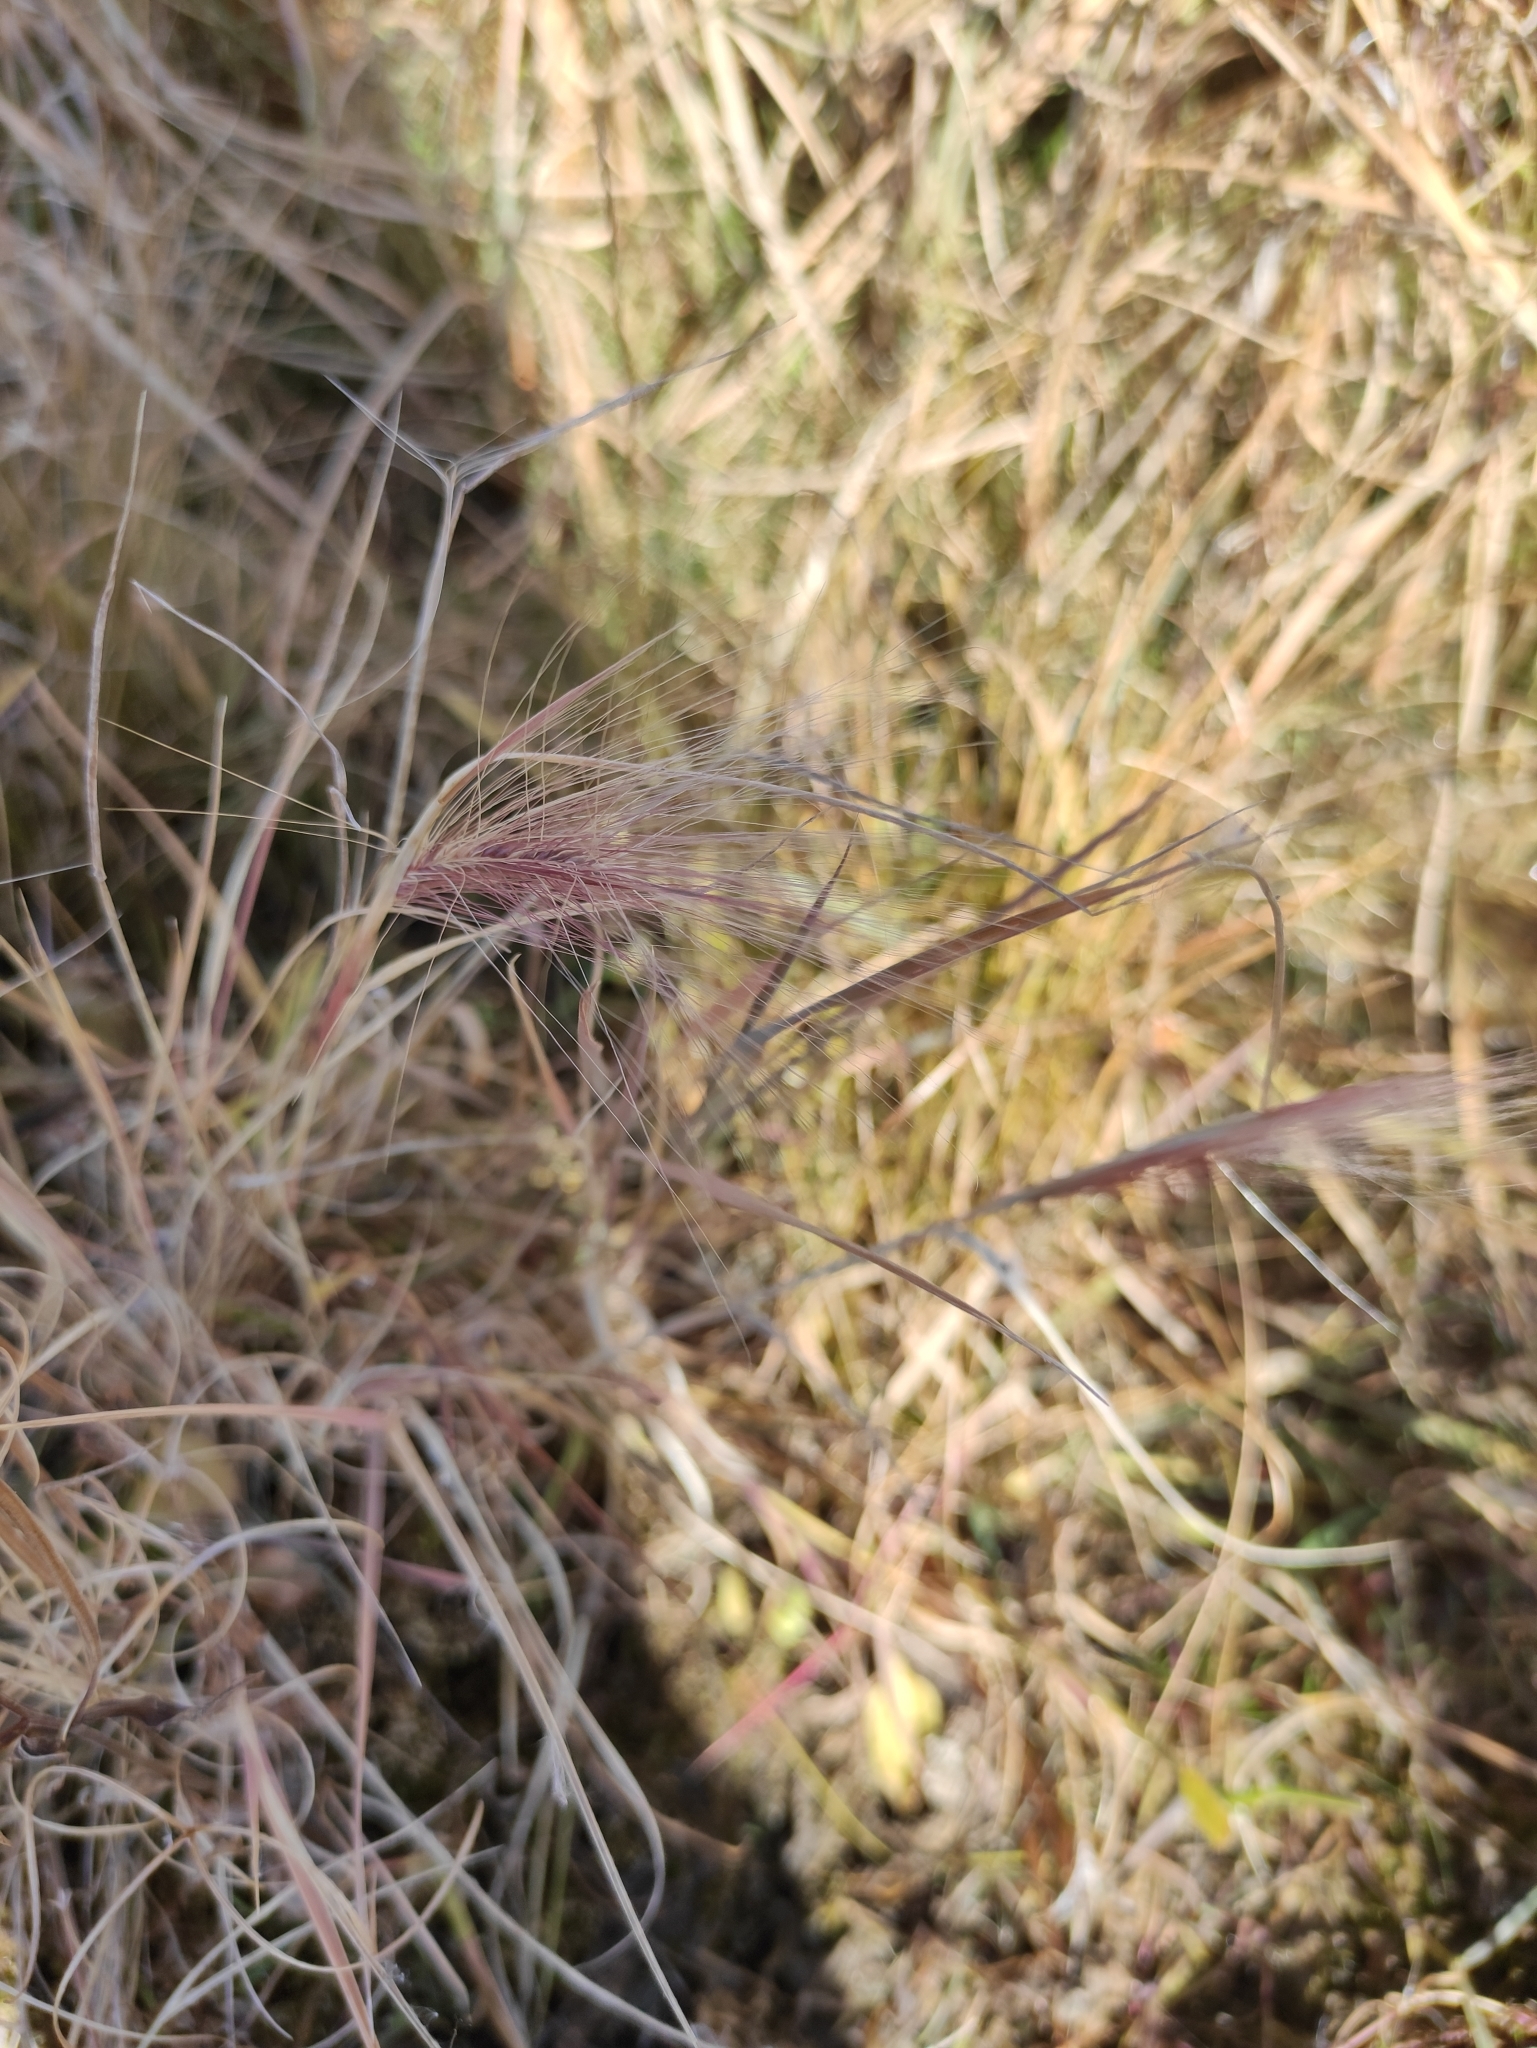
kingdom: Plantae
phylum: Tracheophyta
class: Liliopsida
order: Poales
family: Poaceae
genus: Hordeum
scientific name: Hordeum jubatum
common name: Foxtail barley
